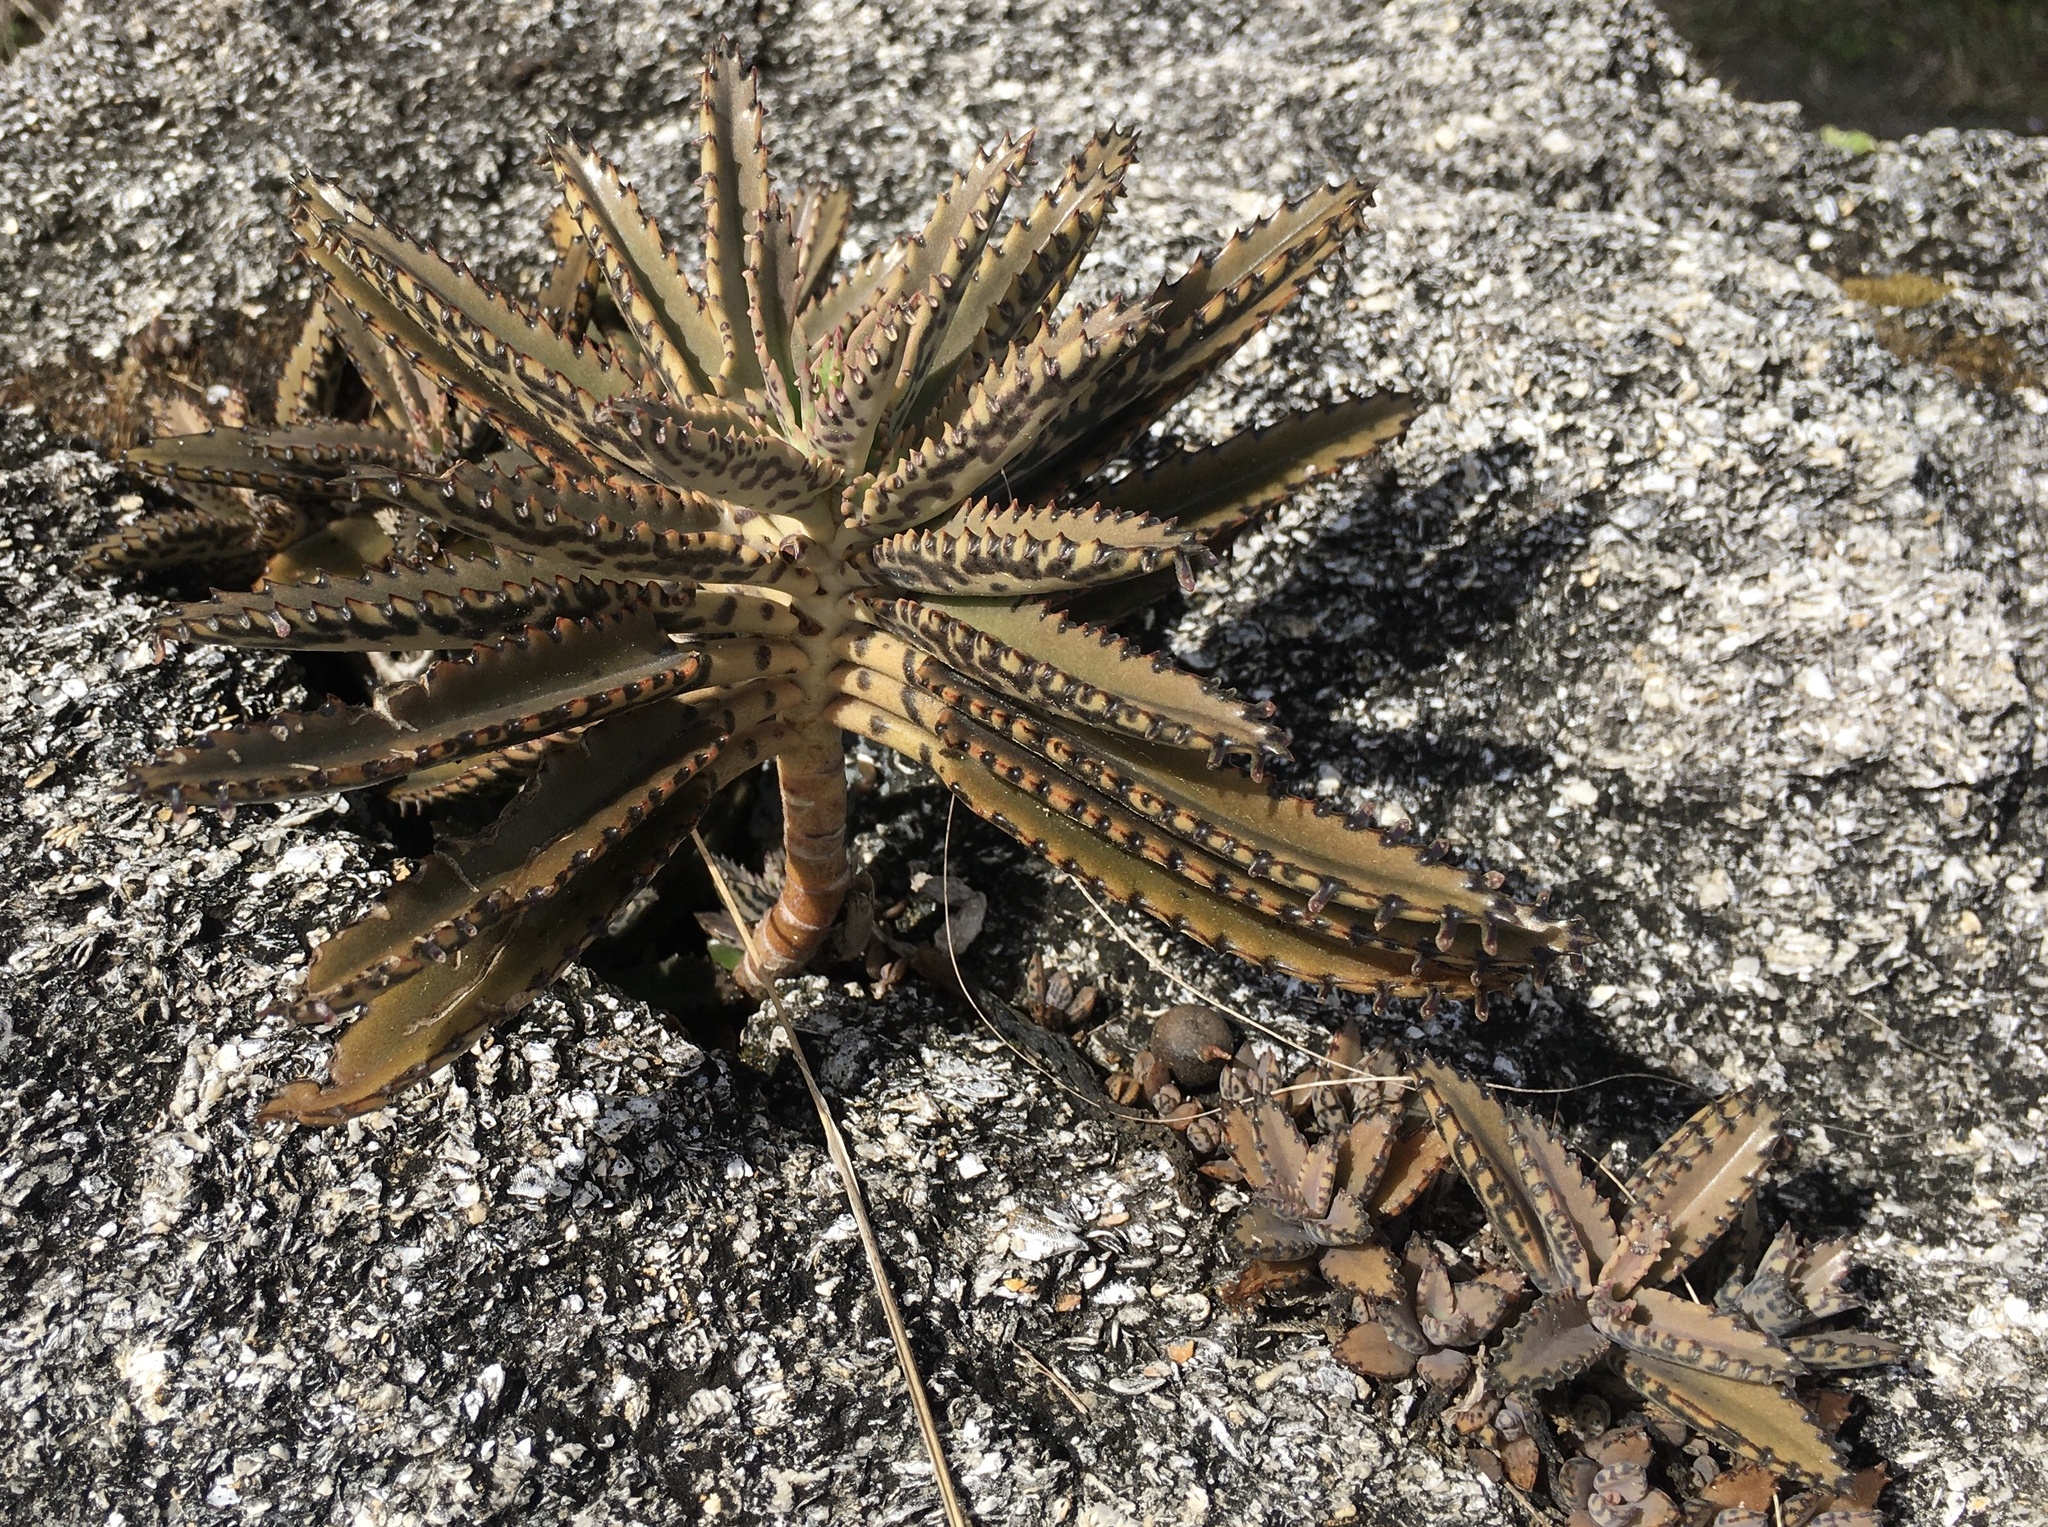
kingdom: Plantae
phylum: Tracheophyta
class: Magnoliopsida
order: Saxifragales
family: Crassulaceae
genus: Kalanchoe
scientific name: Kalanchoe houghtonii
